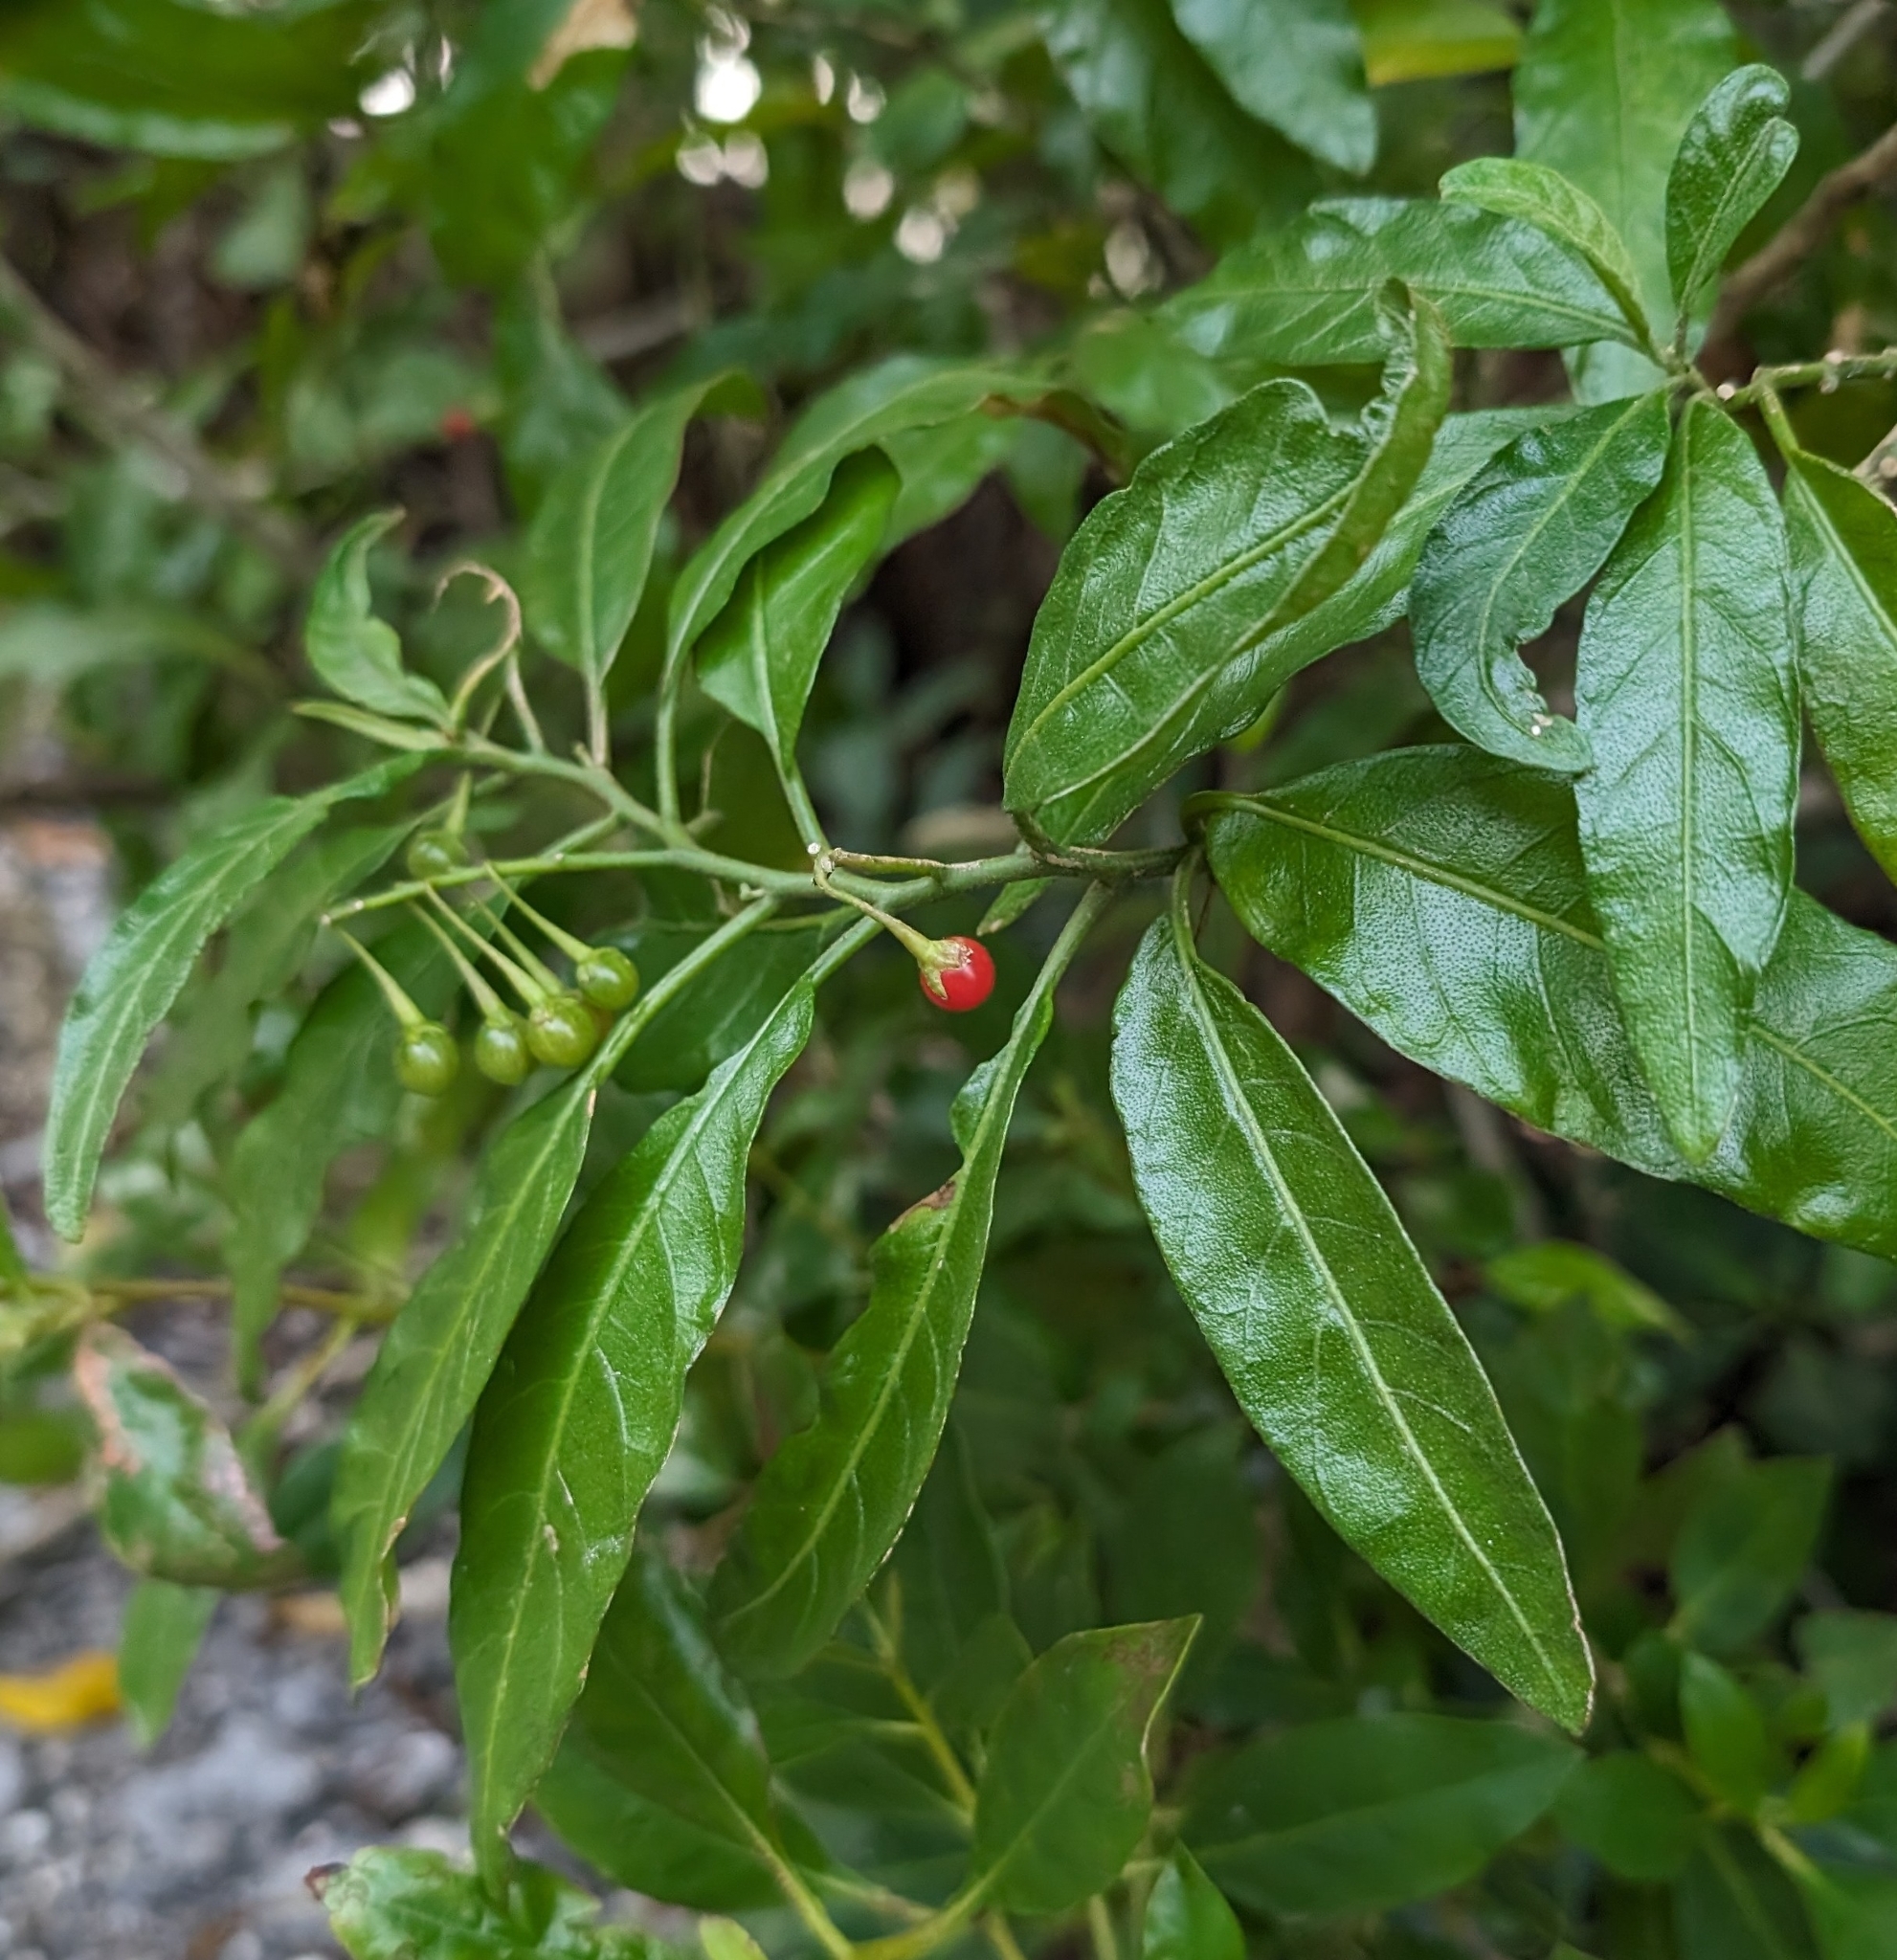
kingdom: Plantae
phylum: Tracheophyta
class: Magnoliopsida
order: Solanales
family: Solanaceae
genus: Solanum
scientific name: Solanum bahamense
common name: Canker-berry
